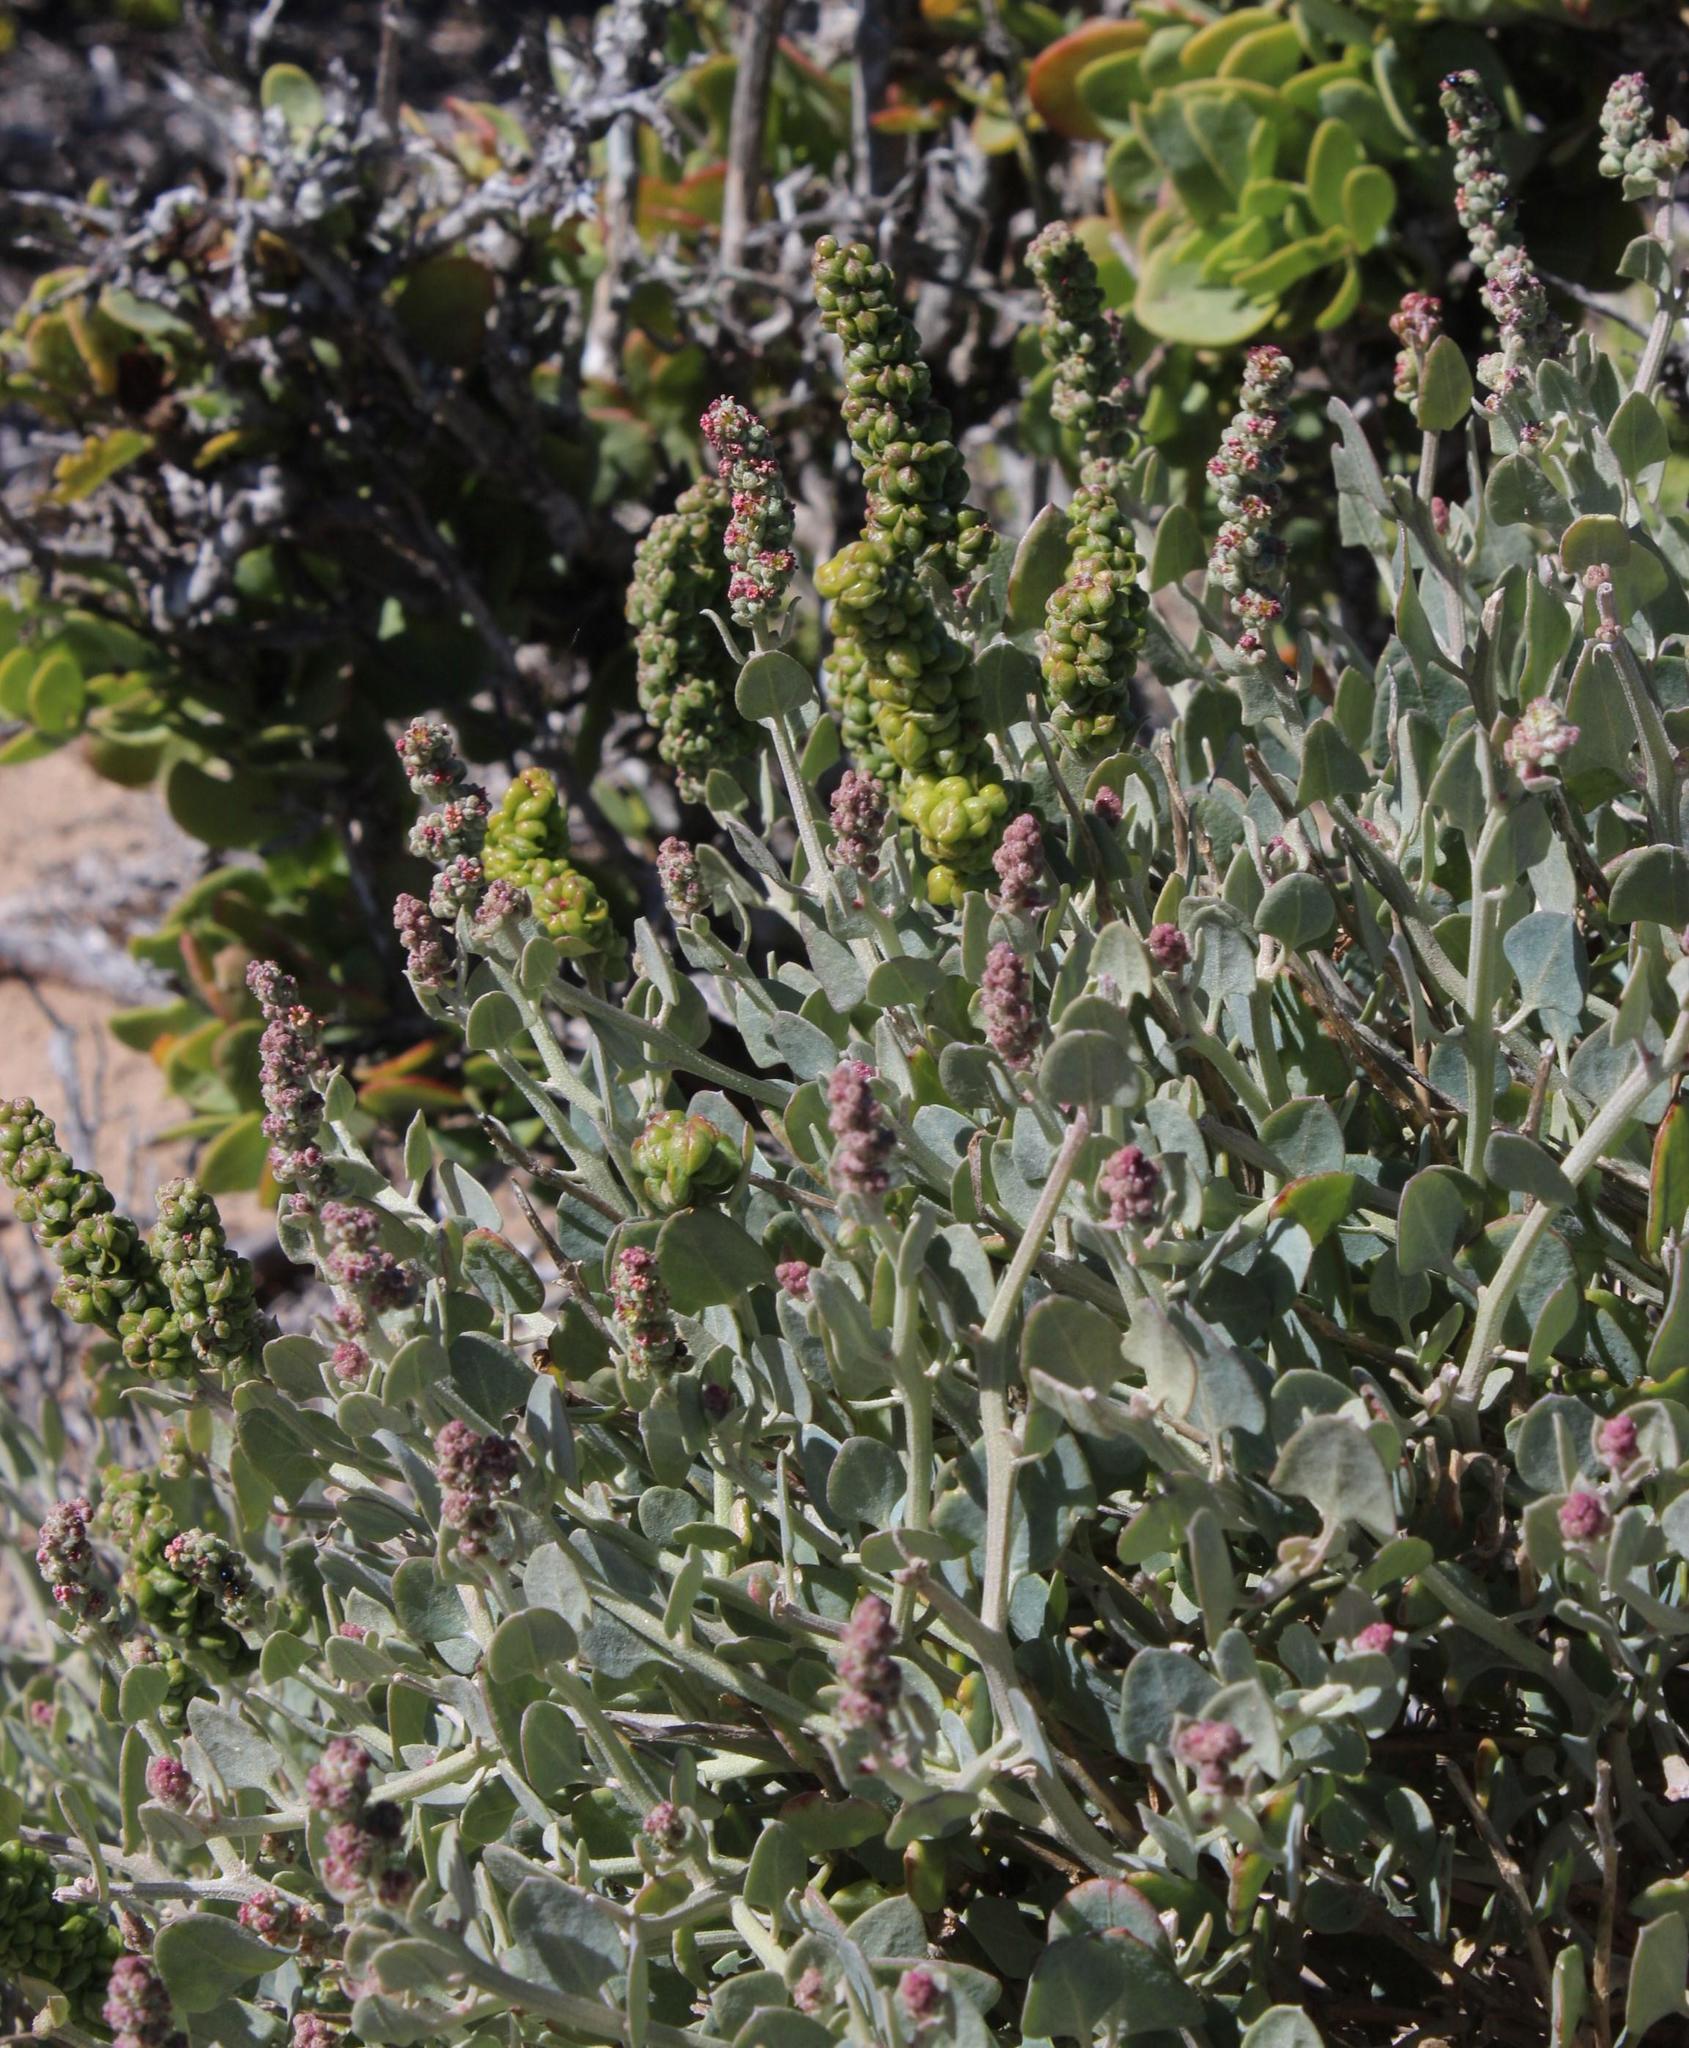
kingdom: Plantae
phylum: Tracheophyta
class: Magnoliopsida
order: Caryophyllales
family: Amaranthaceae
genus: Exomis
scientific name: Exomis albicans
